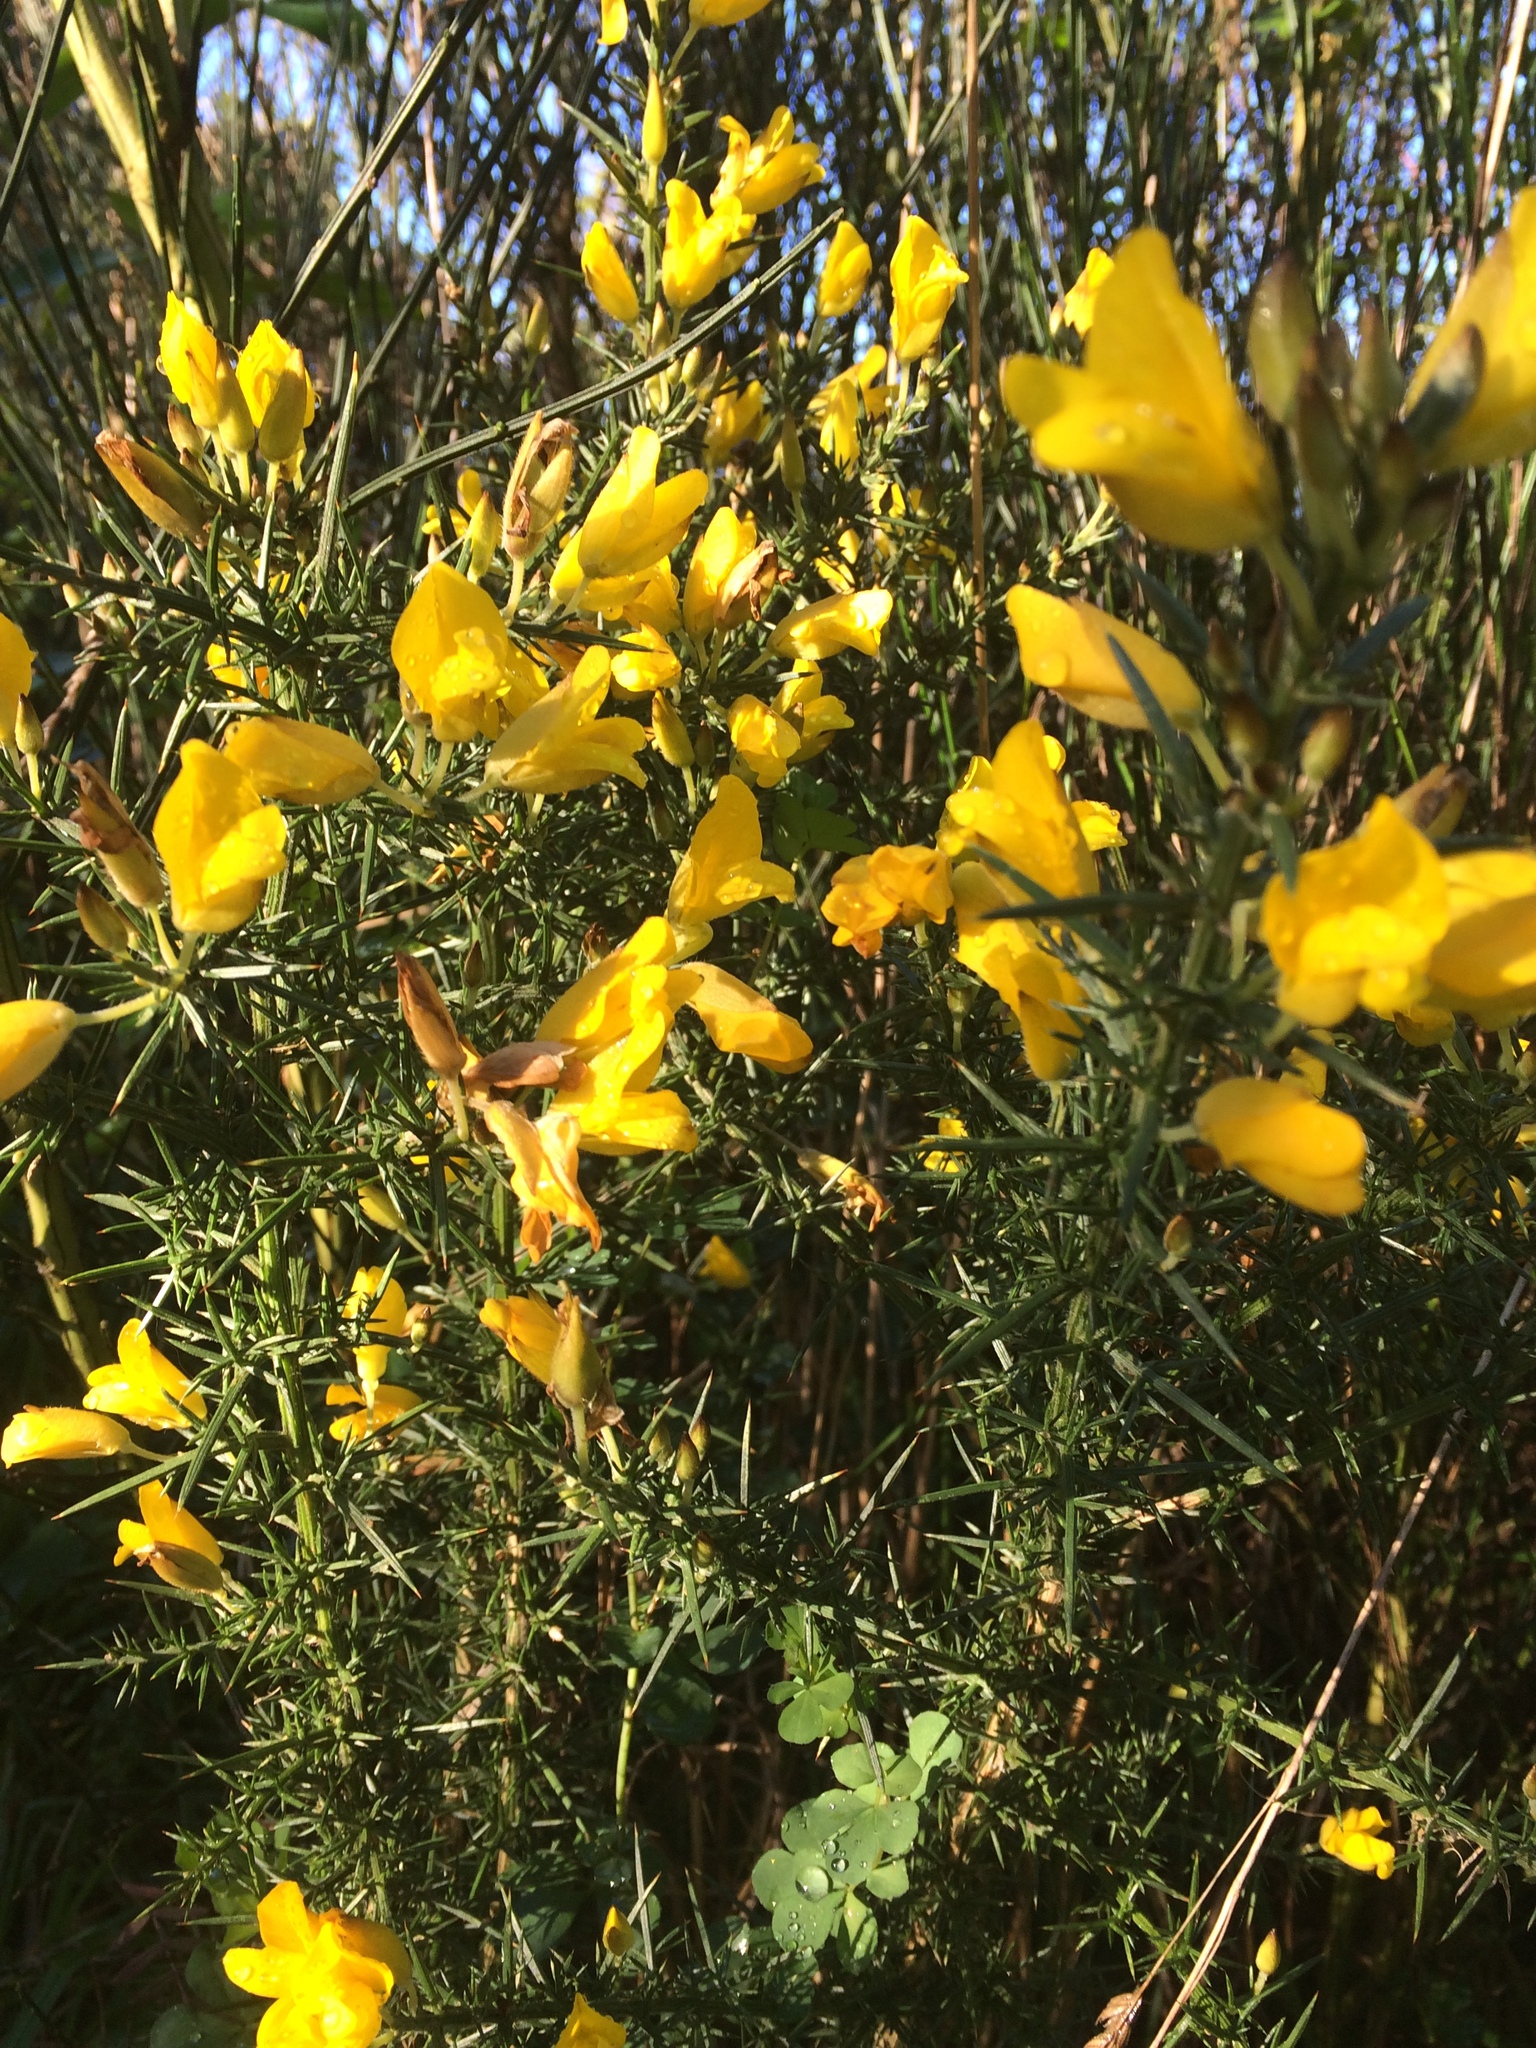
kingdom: Plantae
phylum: Tracheophyta
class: Magnoliopsida
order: Fabales
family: Fabaceae
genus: Ulex
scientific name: Ulex europaeus
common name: Common gorse
